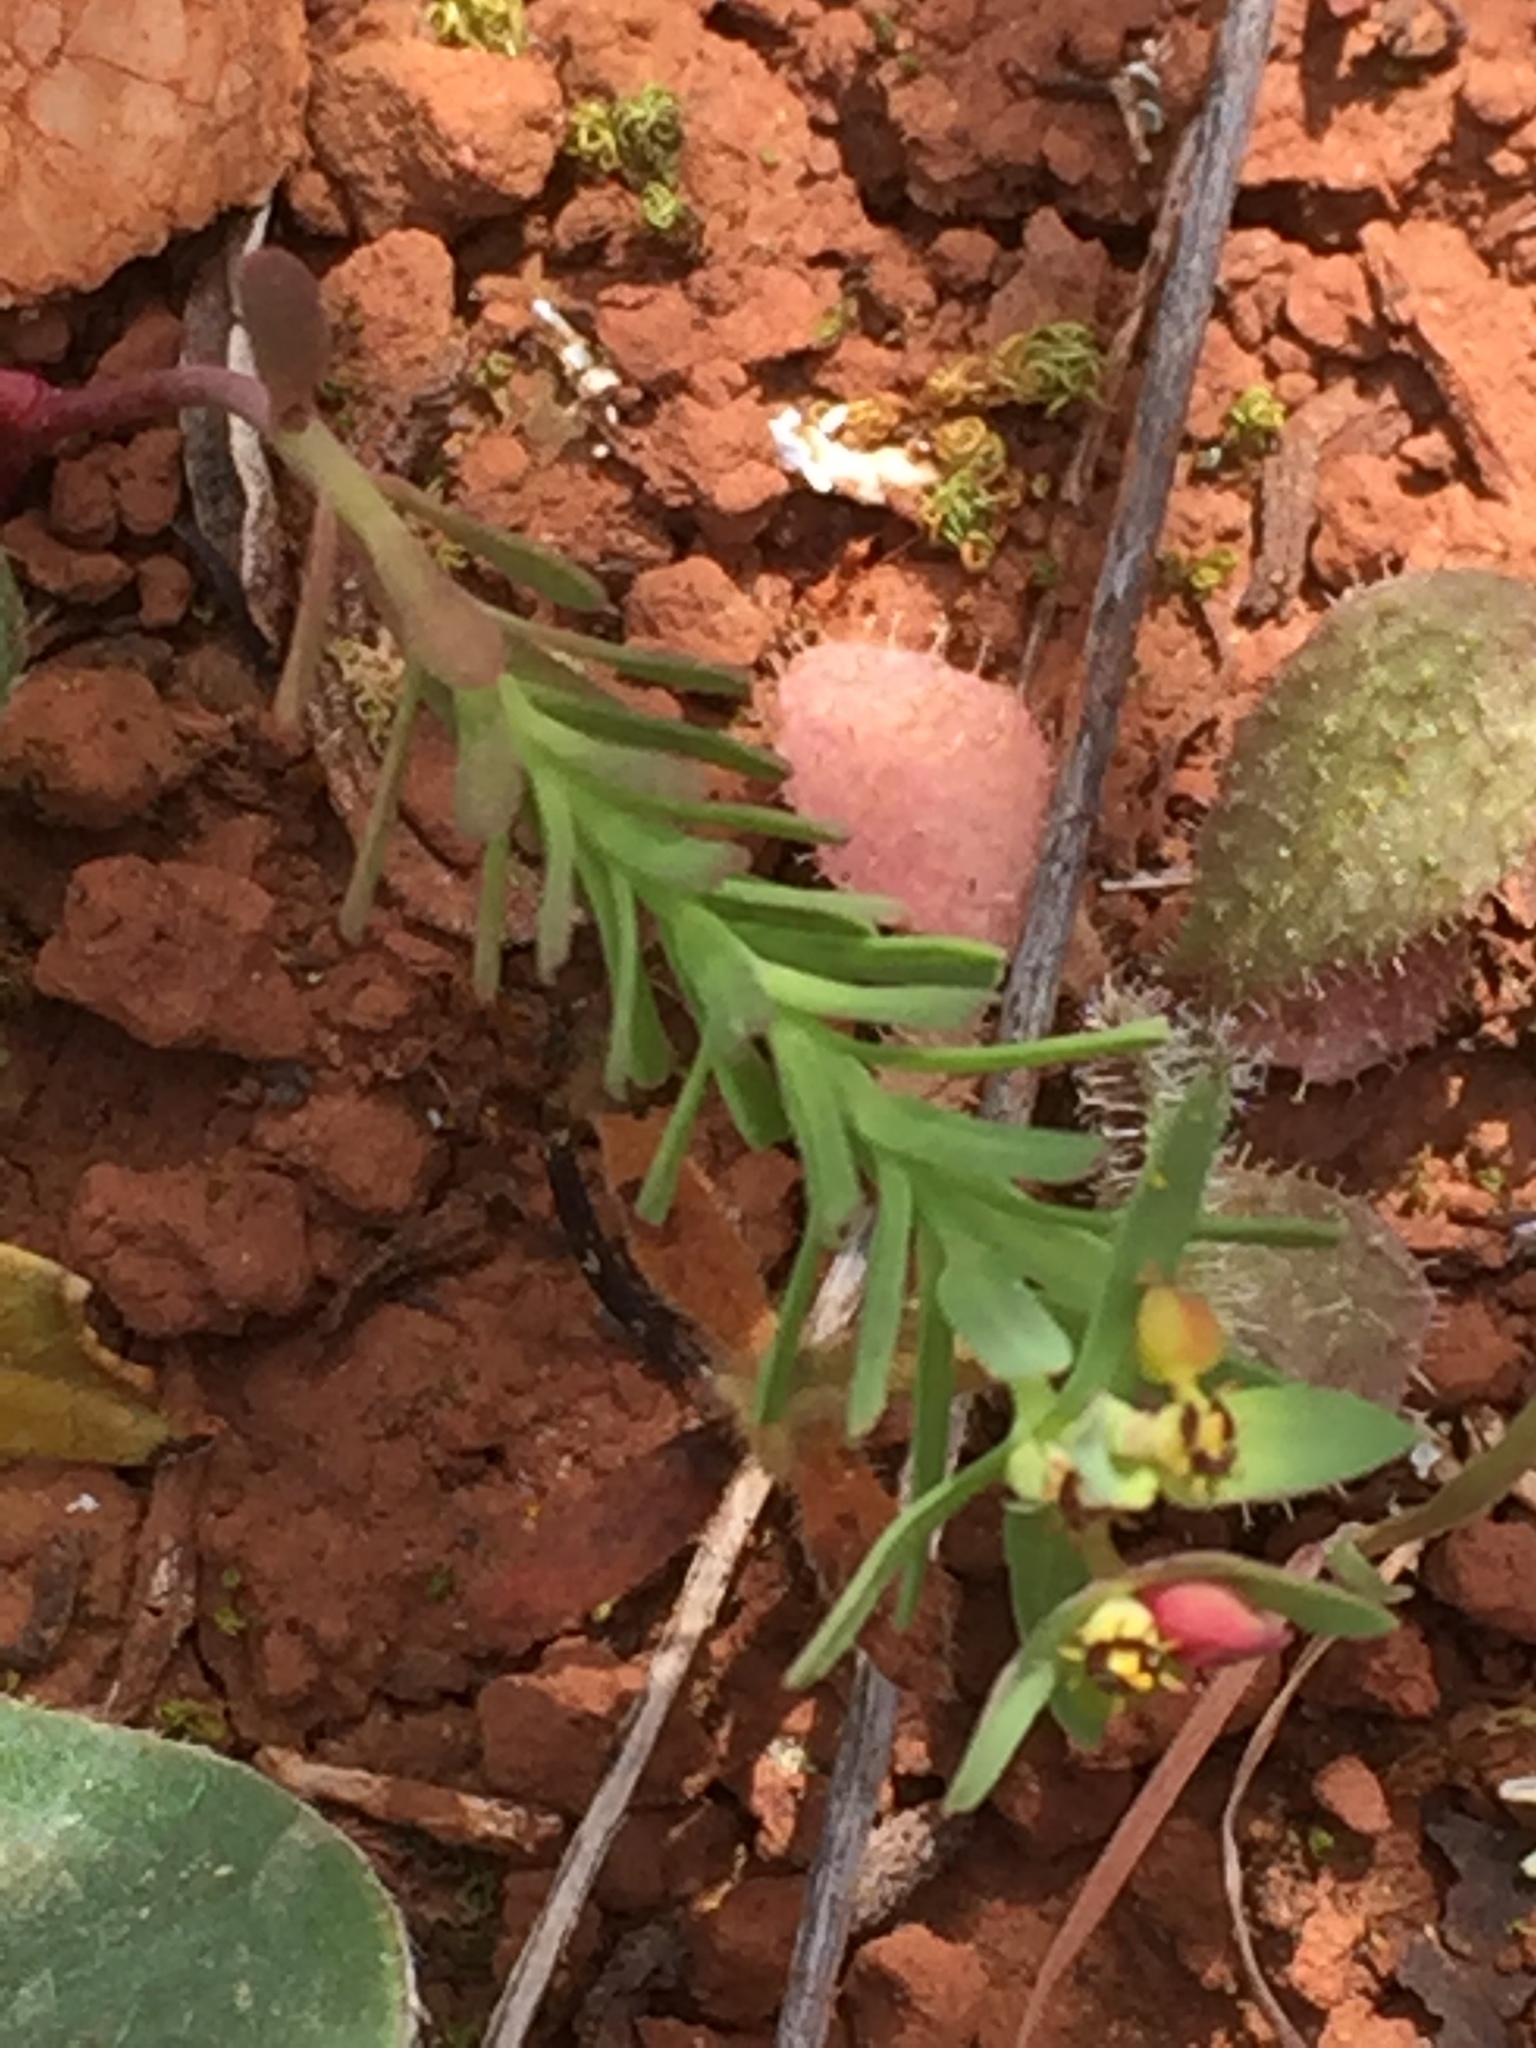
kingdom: Plantae
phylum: Tracheophyta
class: Magnoliopsida
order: Malpighiales
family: Euphorbiaceae
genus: Euphorbia
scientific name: Euphorbia exigua
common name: Dwarf spurge
